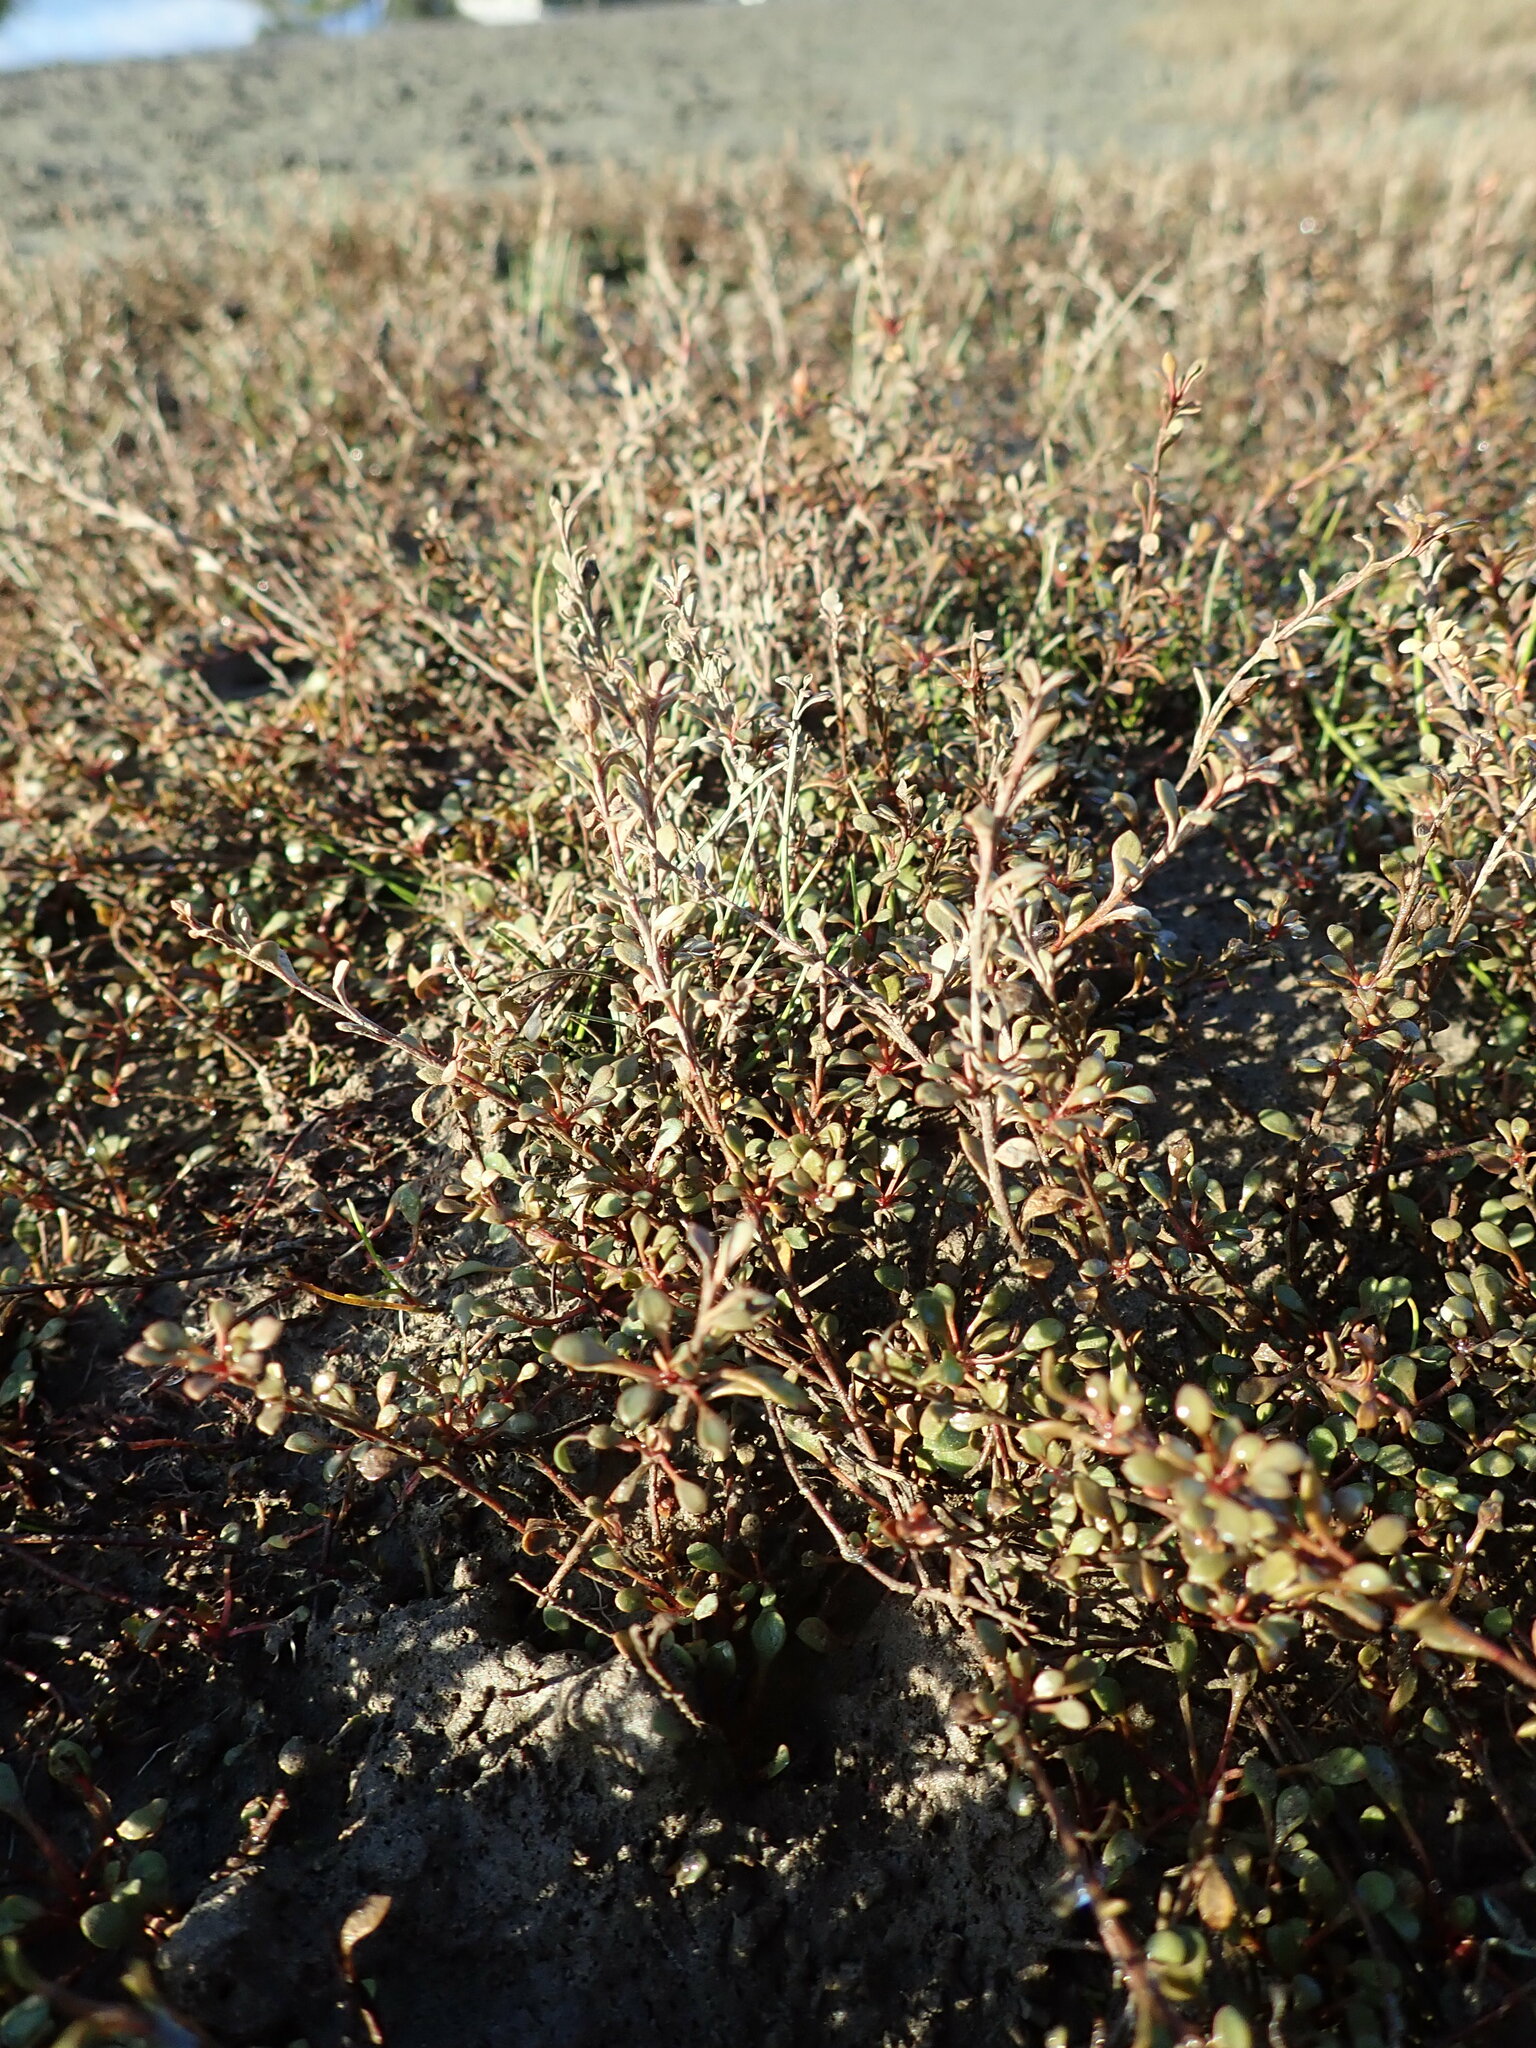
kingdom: Plantae
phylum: Tracheophyta
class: Magnoliopsida
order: Ericales
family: Primulaceae
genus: Samolus
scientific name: Samolus repens
